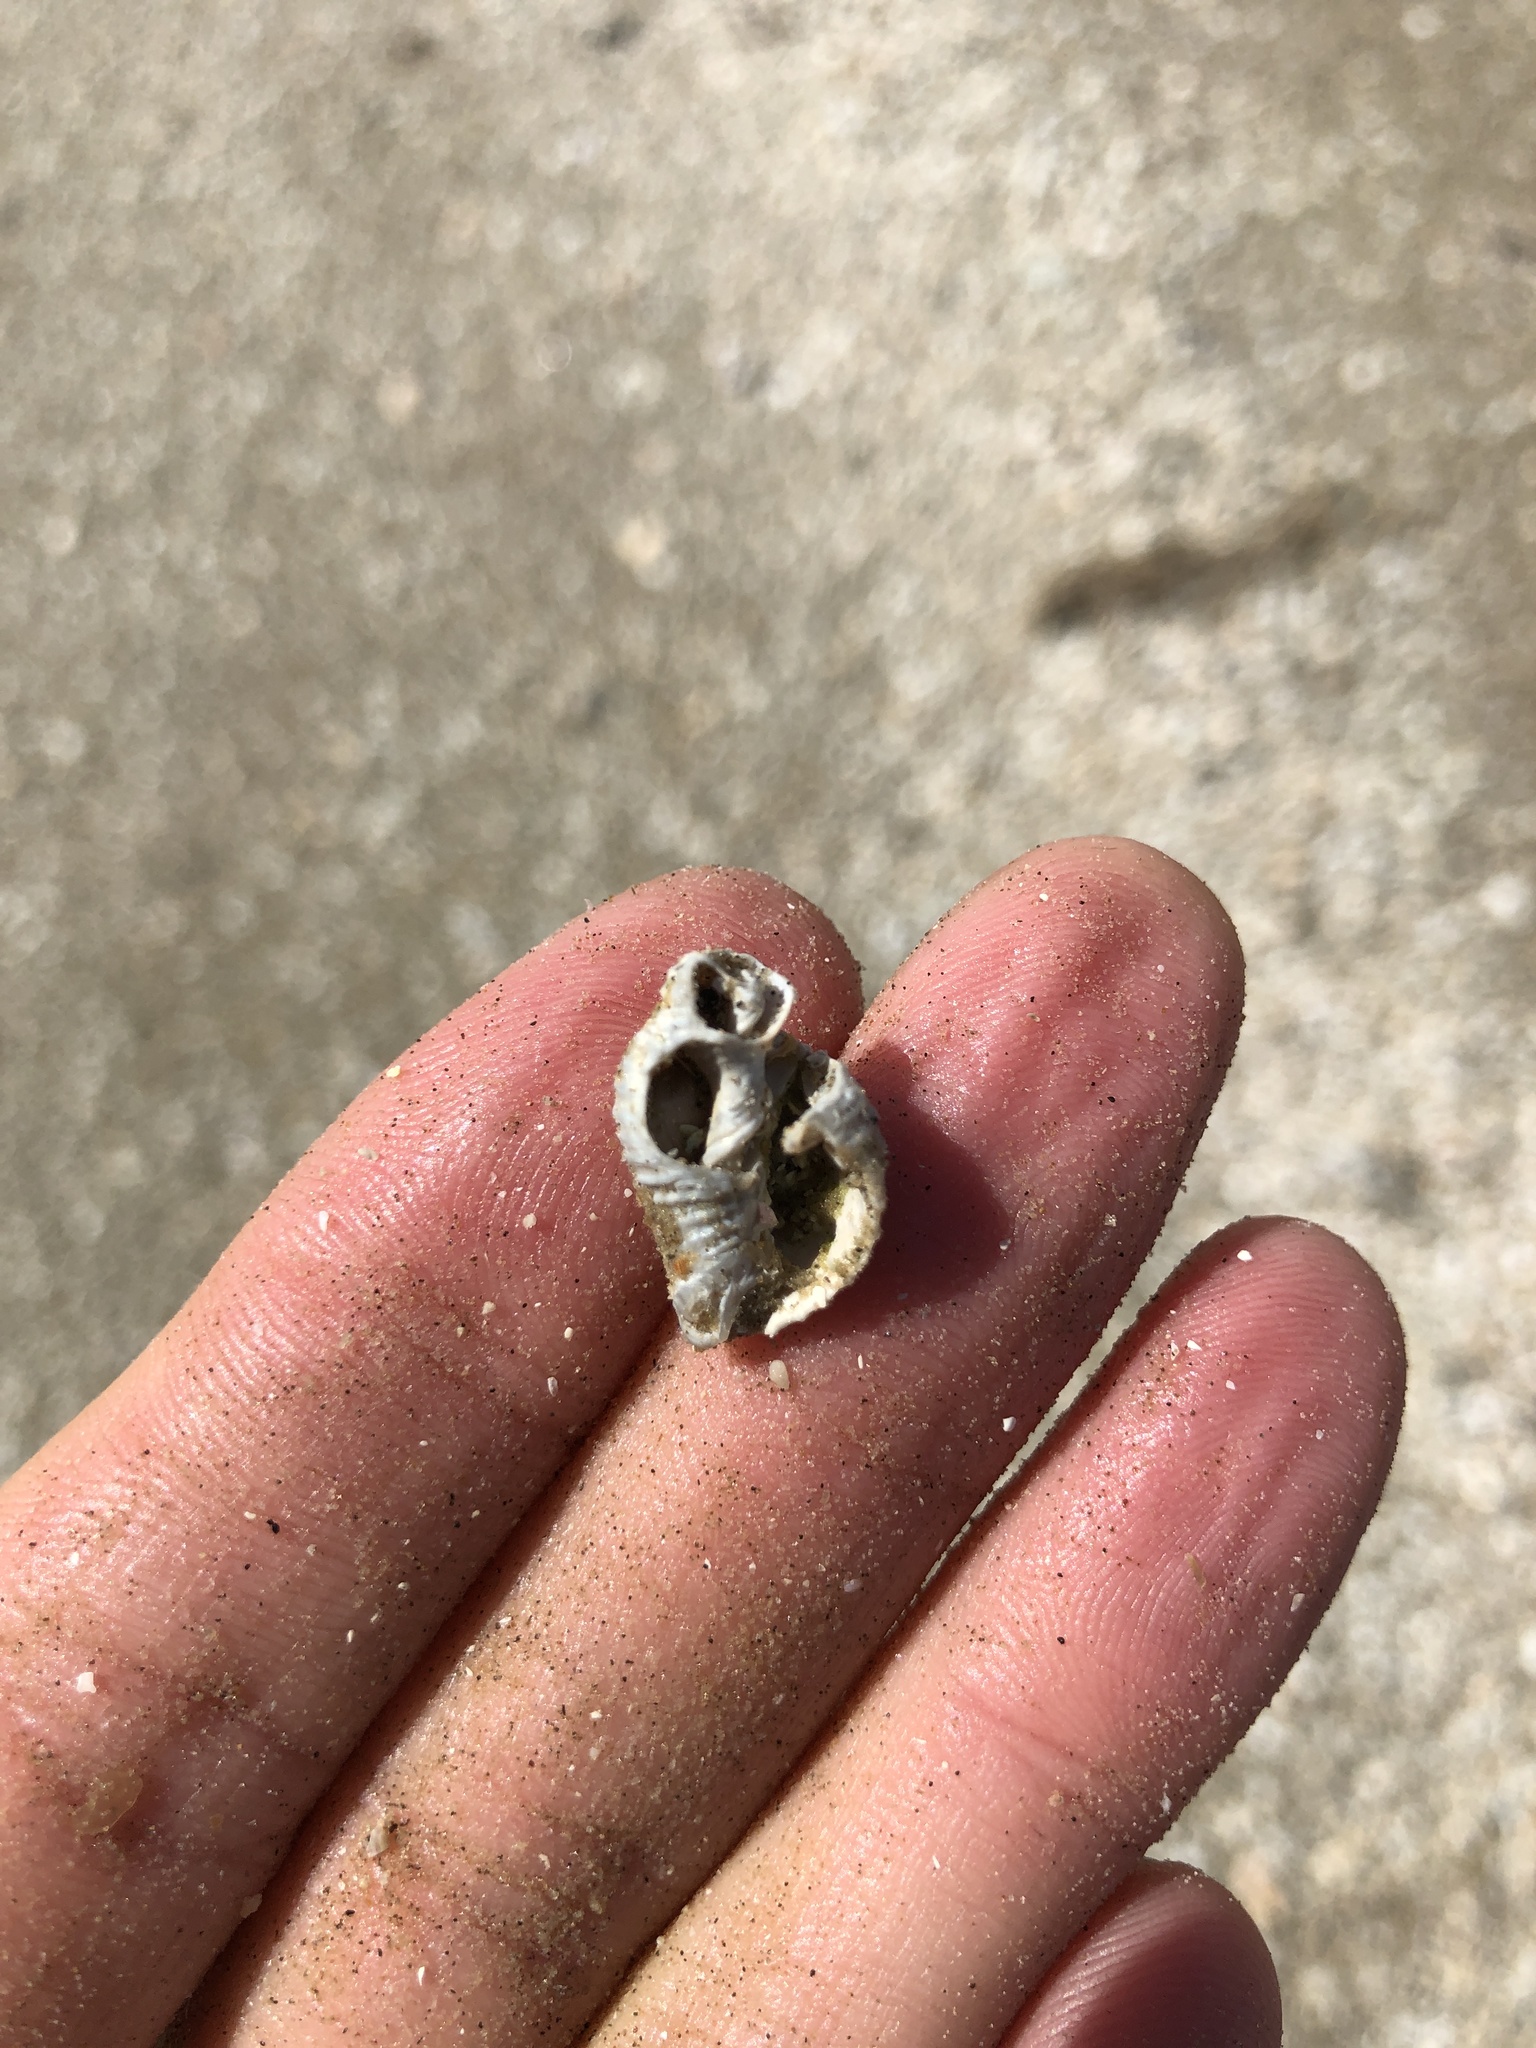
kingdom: Animalia
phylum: Mollusca
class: Gastropoda
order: Neogastropoda
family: Pisaniidae
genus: Solenosteira
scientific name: Solenosteira cancellaria
